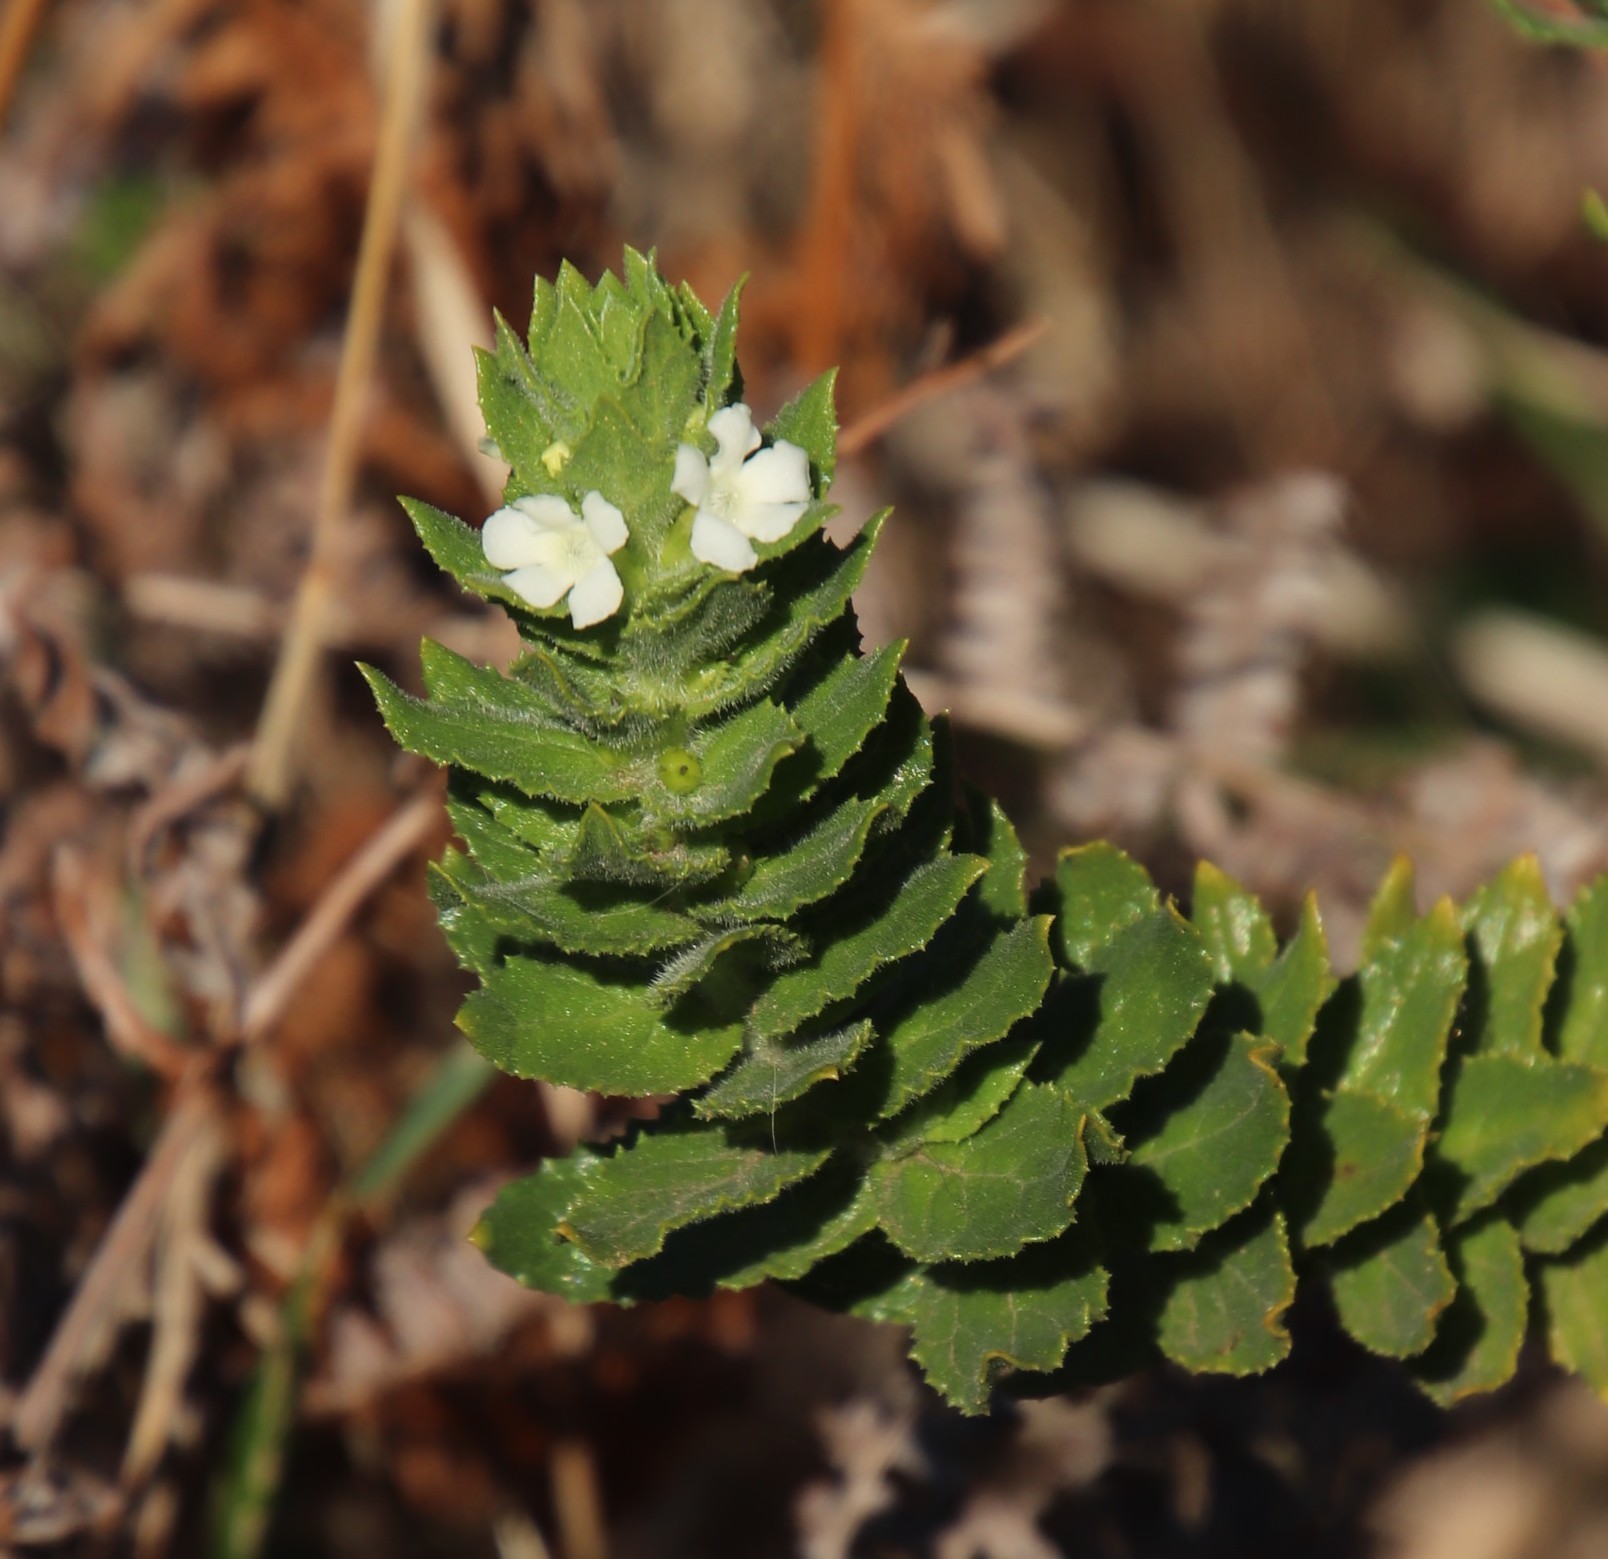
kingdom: Plantae
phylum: Tracheophyta
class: Magnoliopsida
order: Lamiales
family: Scrophulariaceae
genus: Oftia
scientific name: Oftia africana
